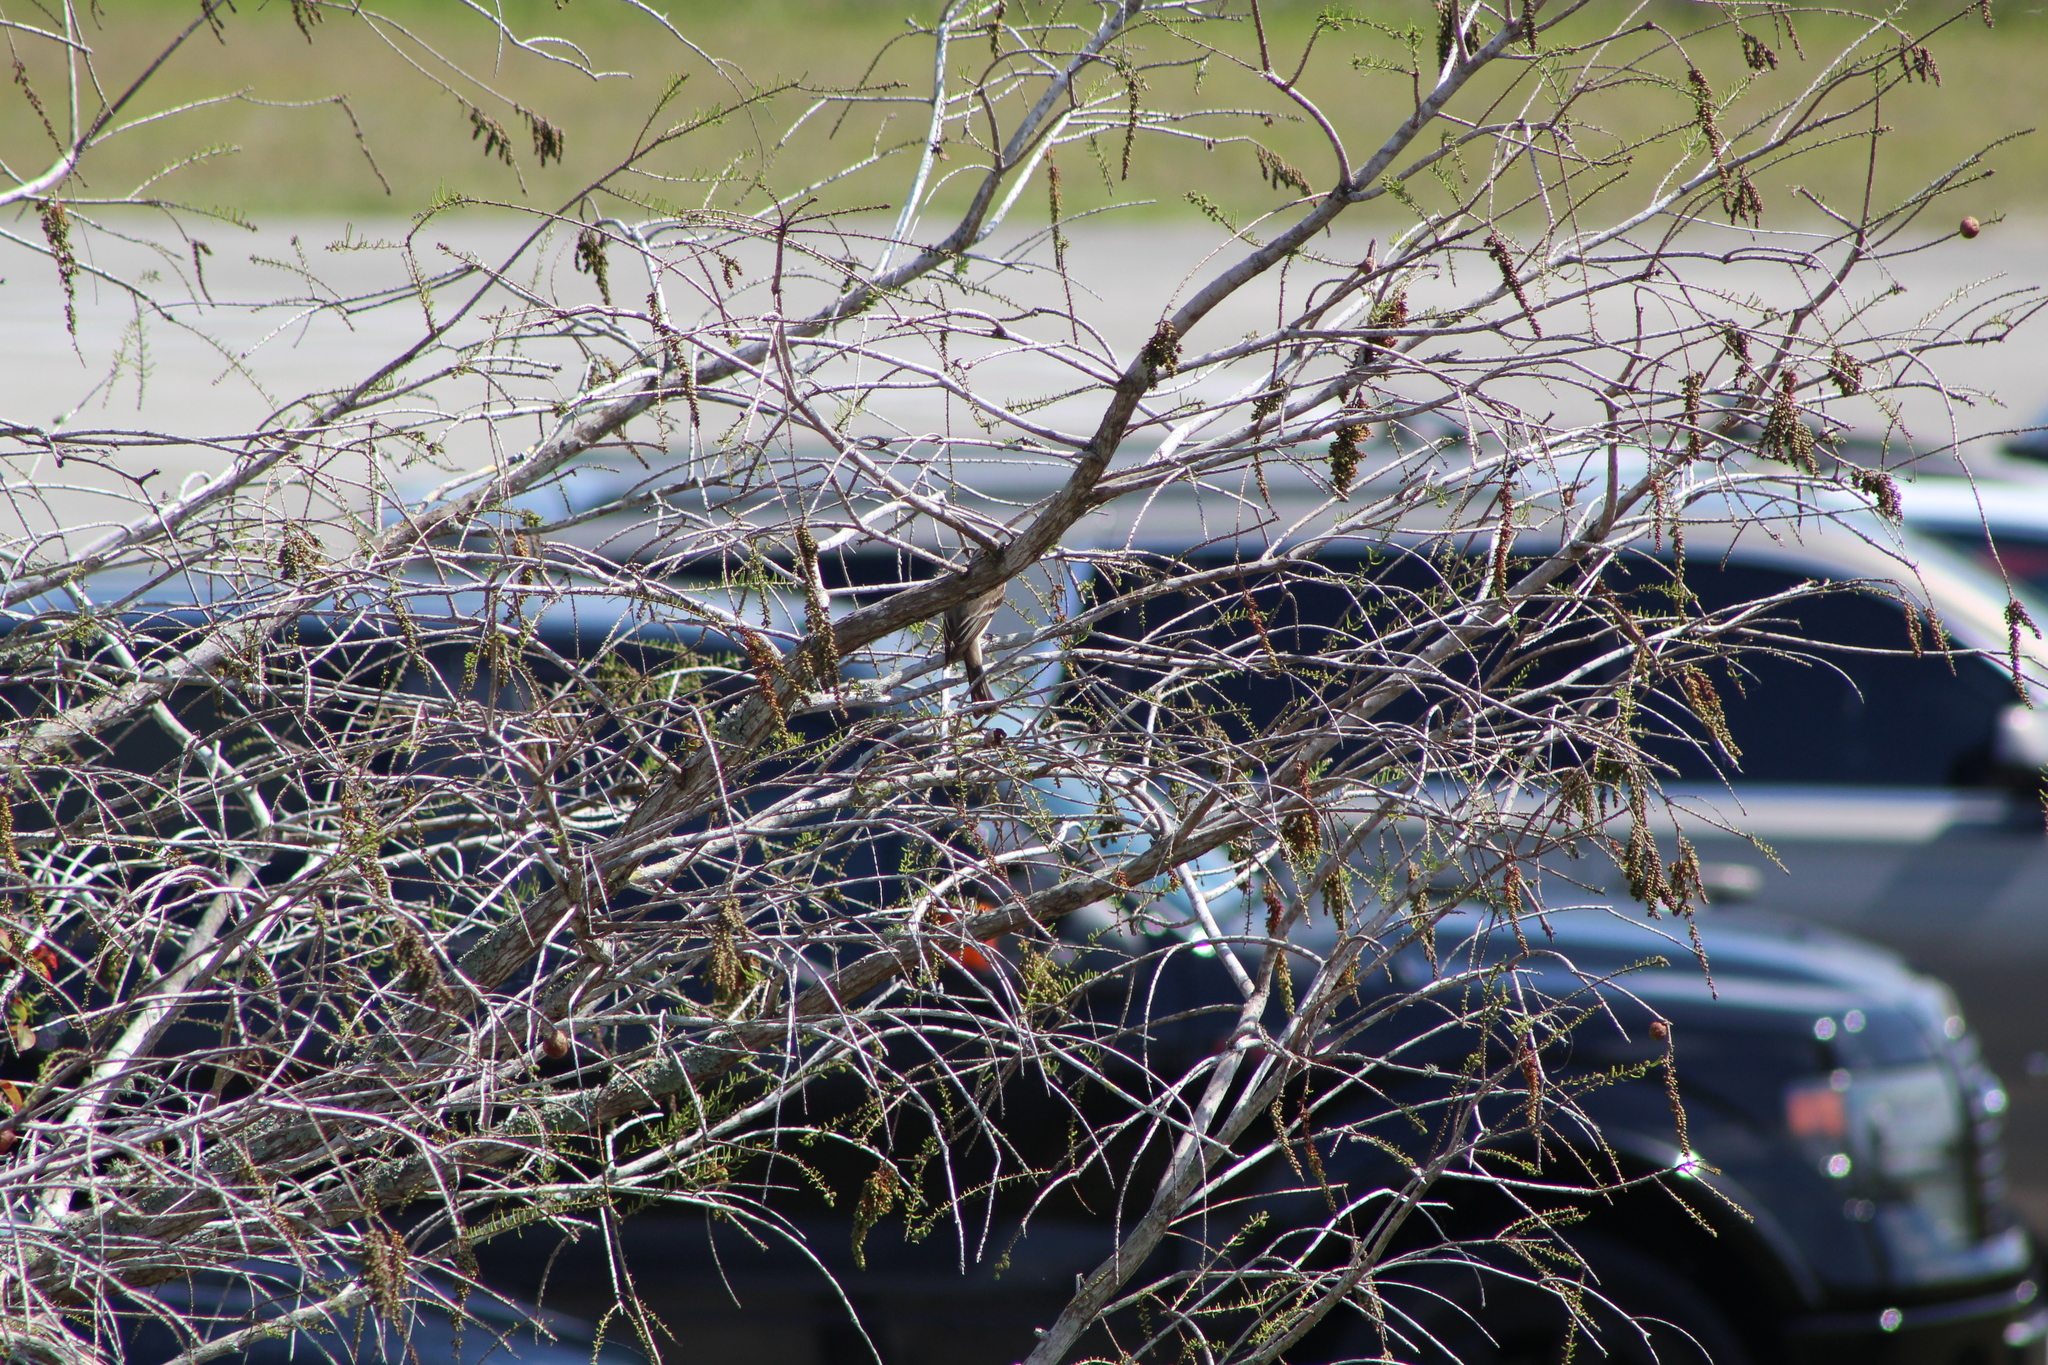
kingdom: Animalia
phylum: Chordata
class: Aves
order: Passeriformes
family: Tyrannidae
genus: Sayornis
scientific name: Sayornis phoebe
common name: Eastern phoebe
